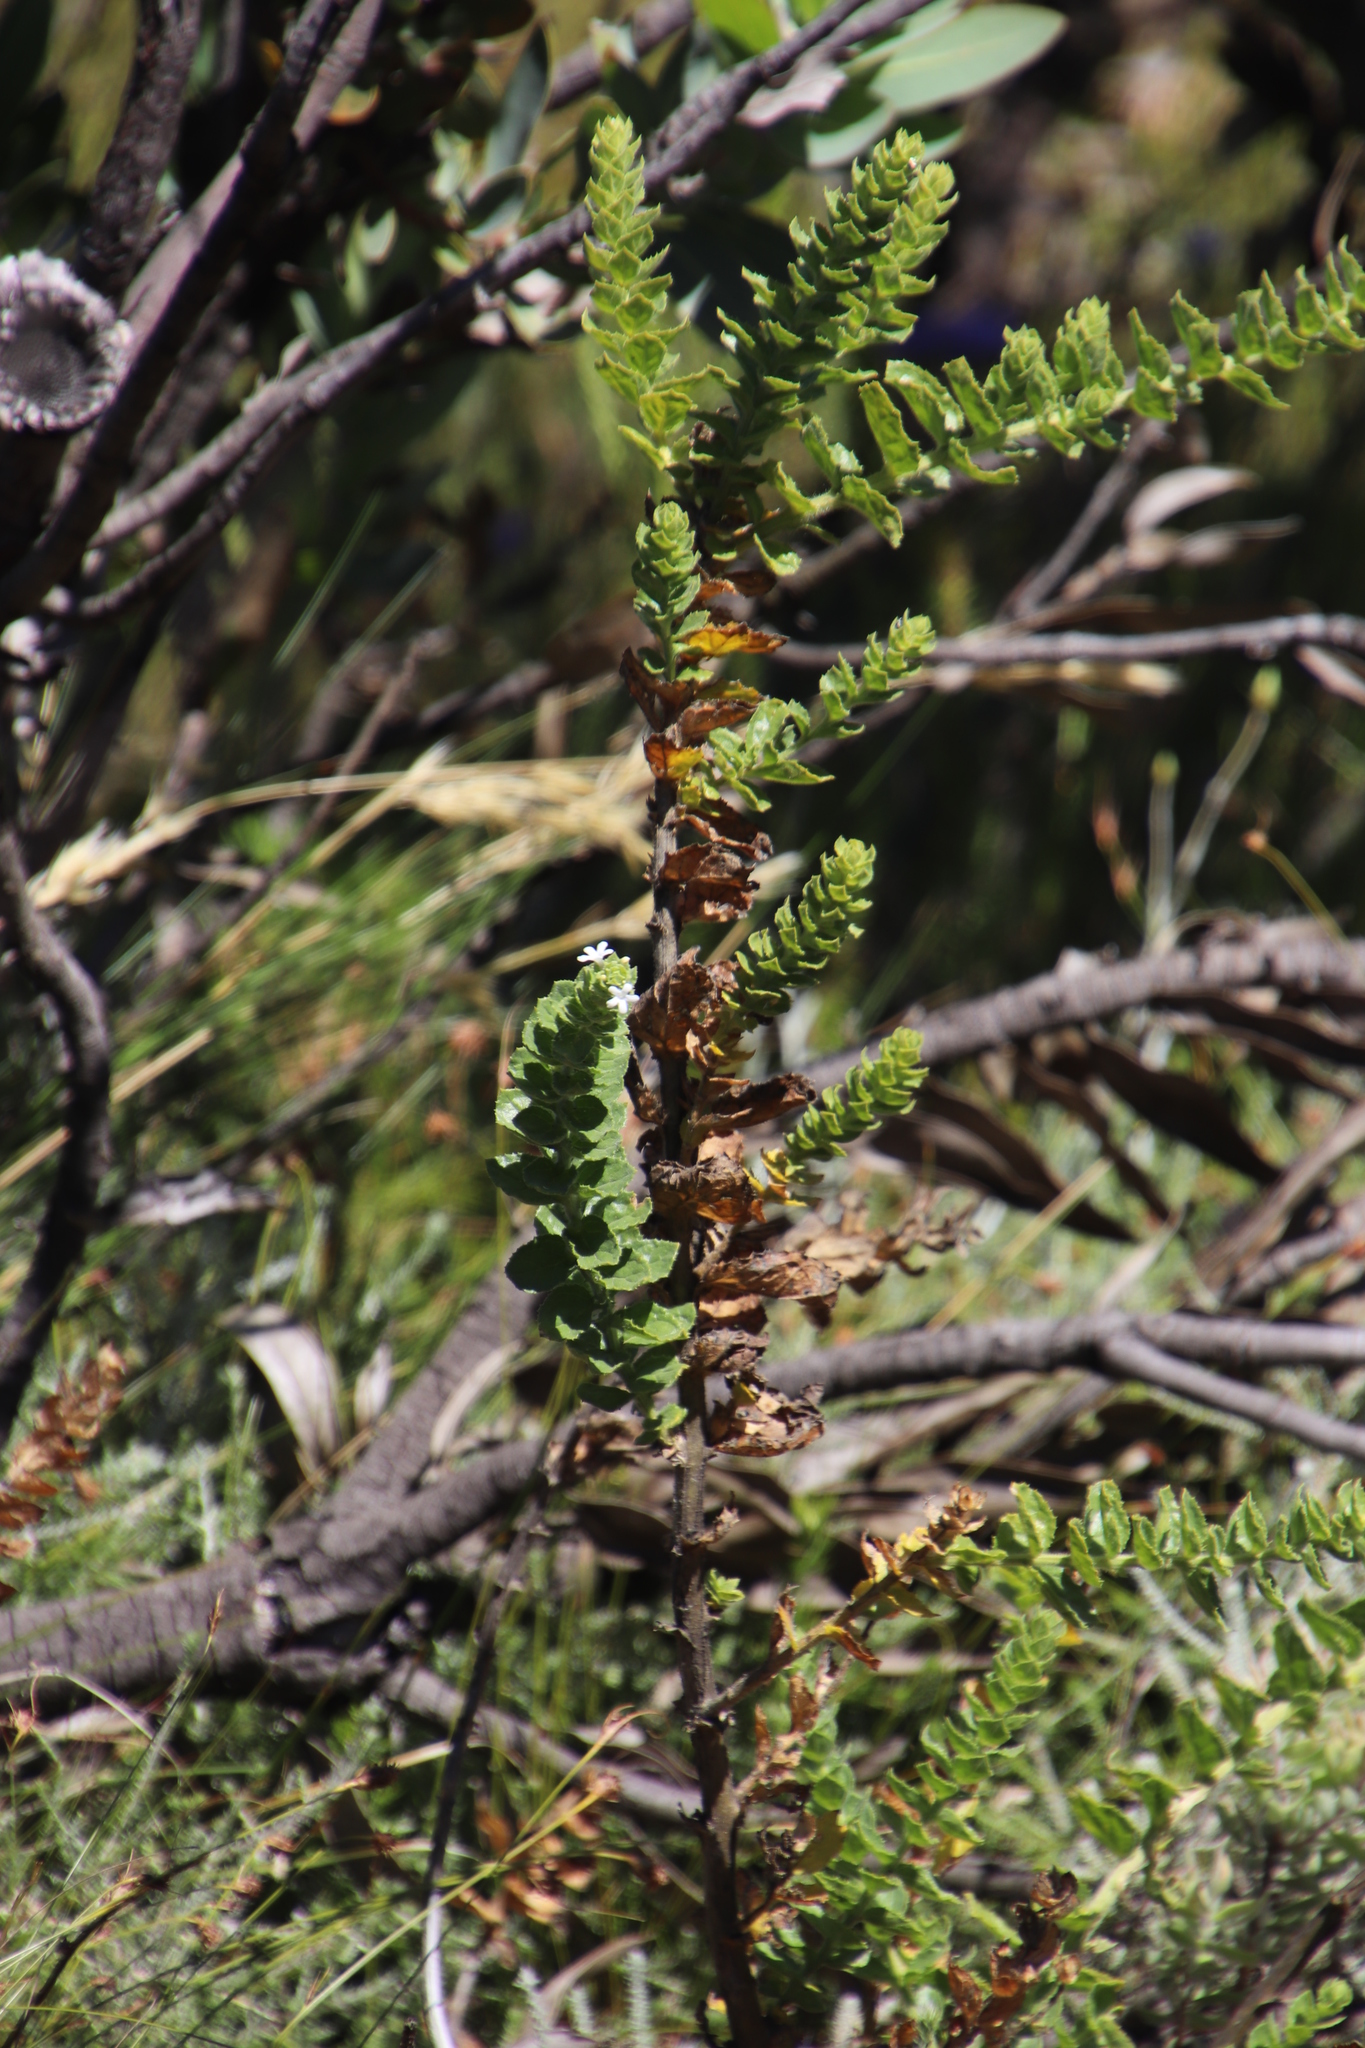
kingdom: Plantae
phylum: Tracheophyta
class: Magnoliopsida
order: Lamiales
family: Scrophulariaceae
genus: Oftia
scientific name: Oftia africana
